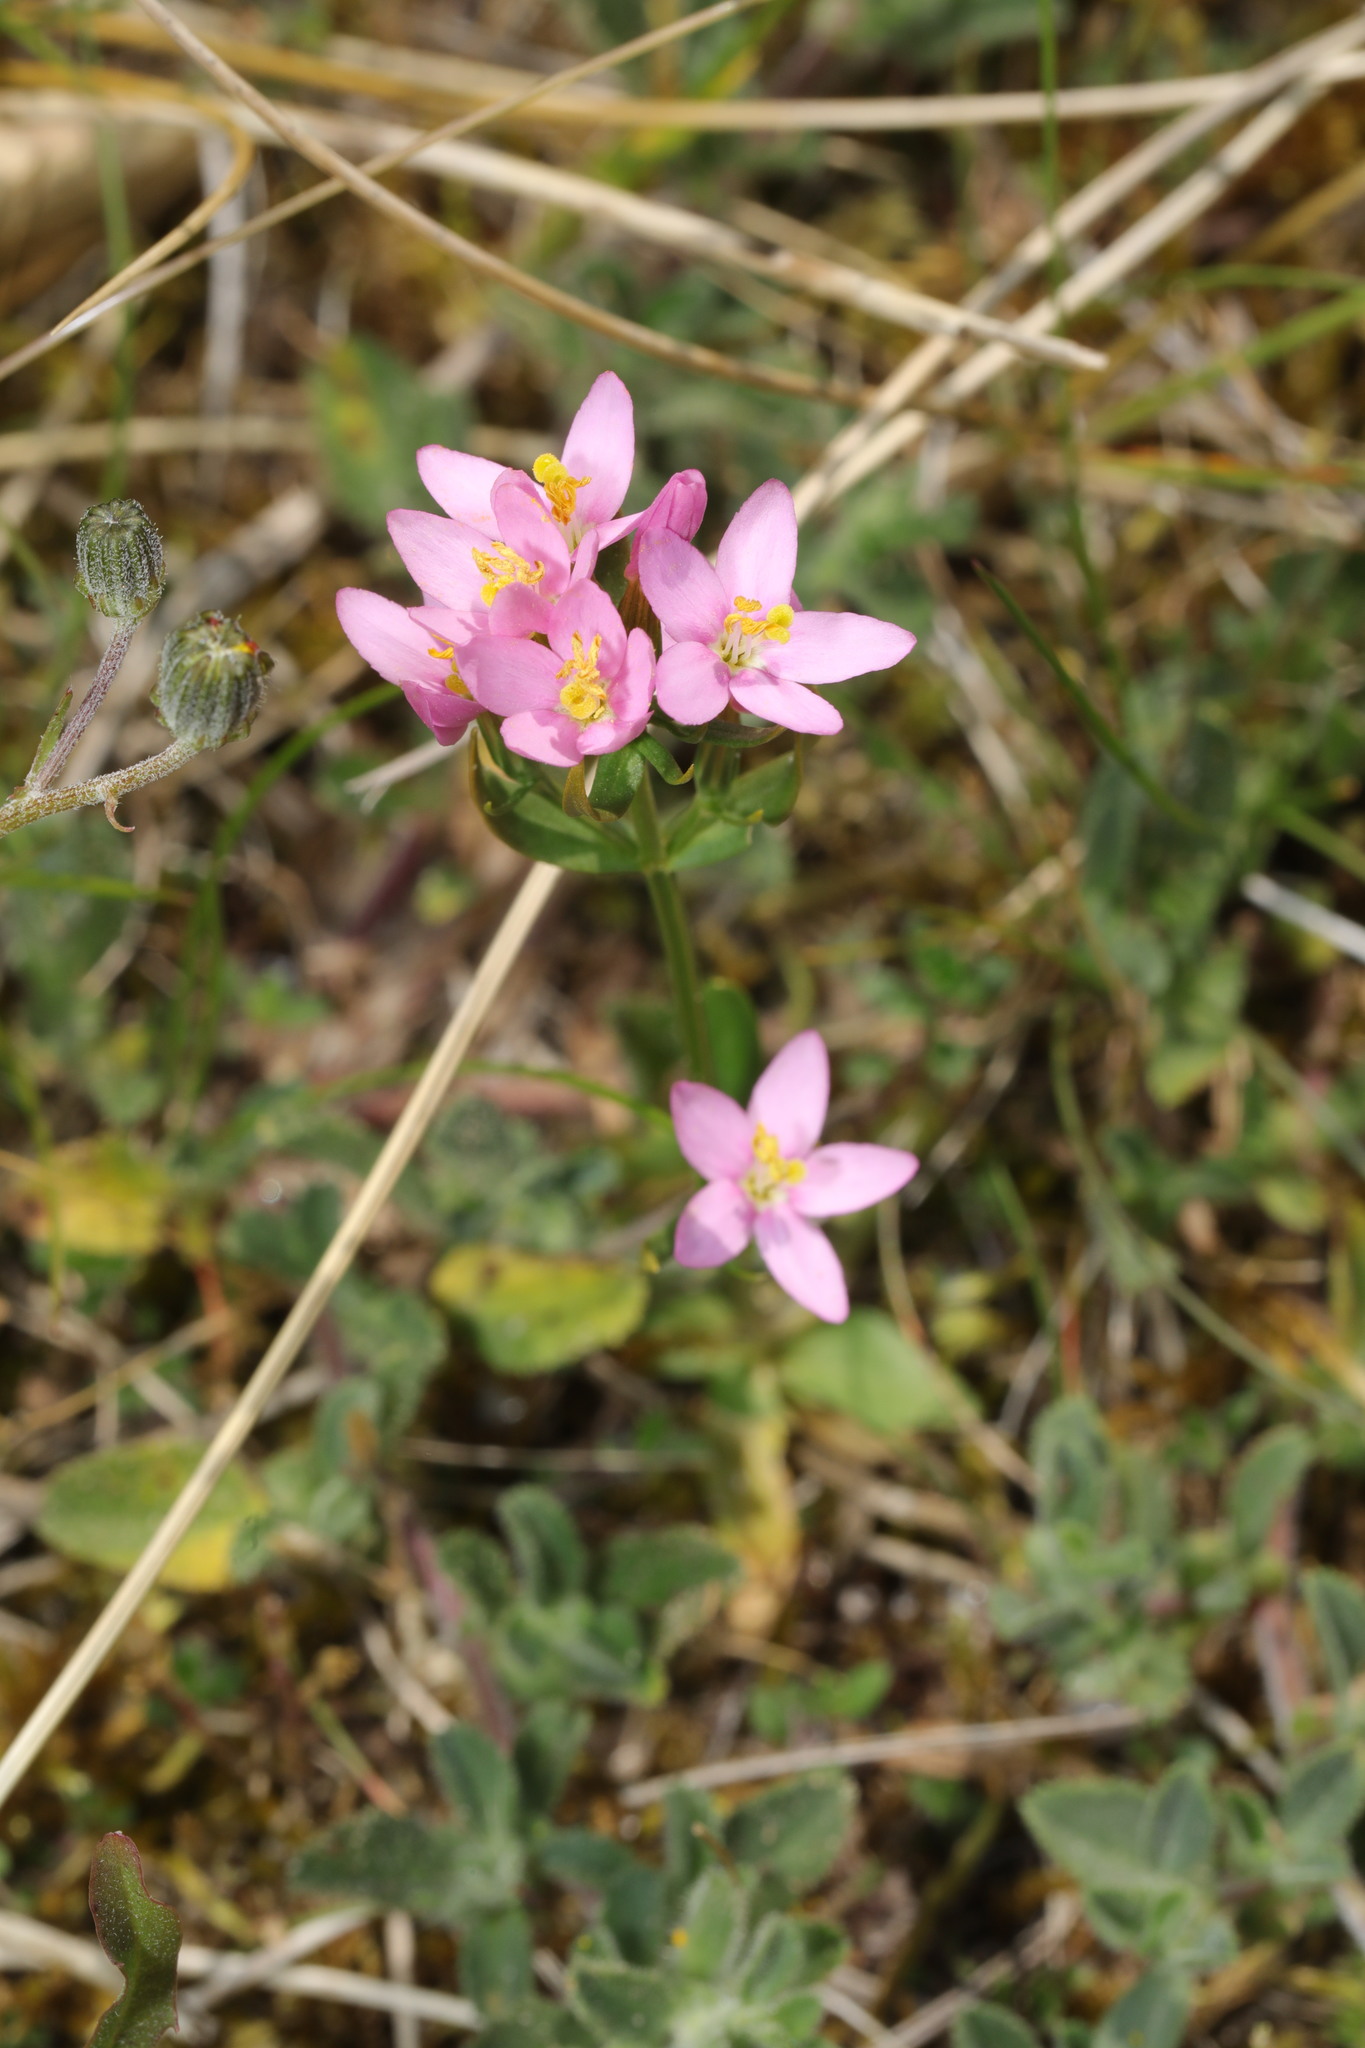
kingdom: Plantae
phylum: Tracheophyta
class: Magnoliopsida
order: Gentianales
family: Gentianaceae
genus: Centaurium
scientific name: Centaurium erythraea
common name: Common centaury
